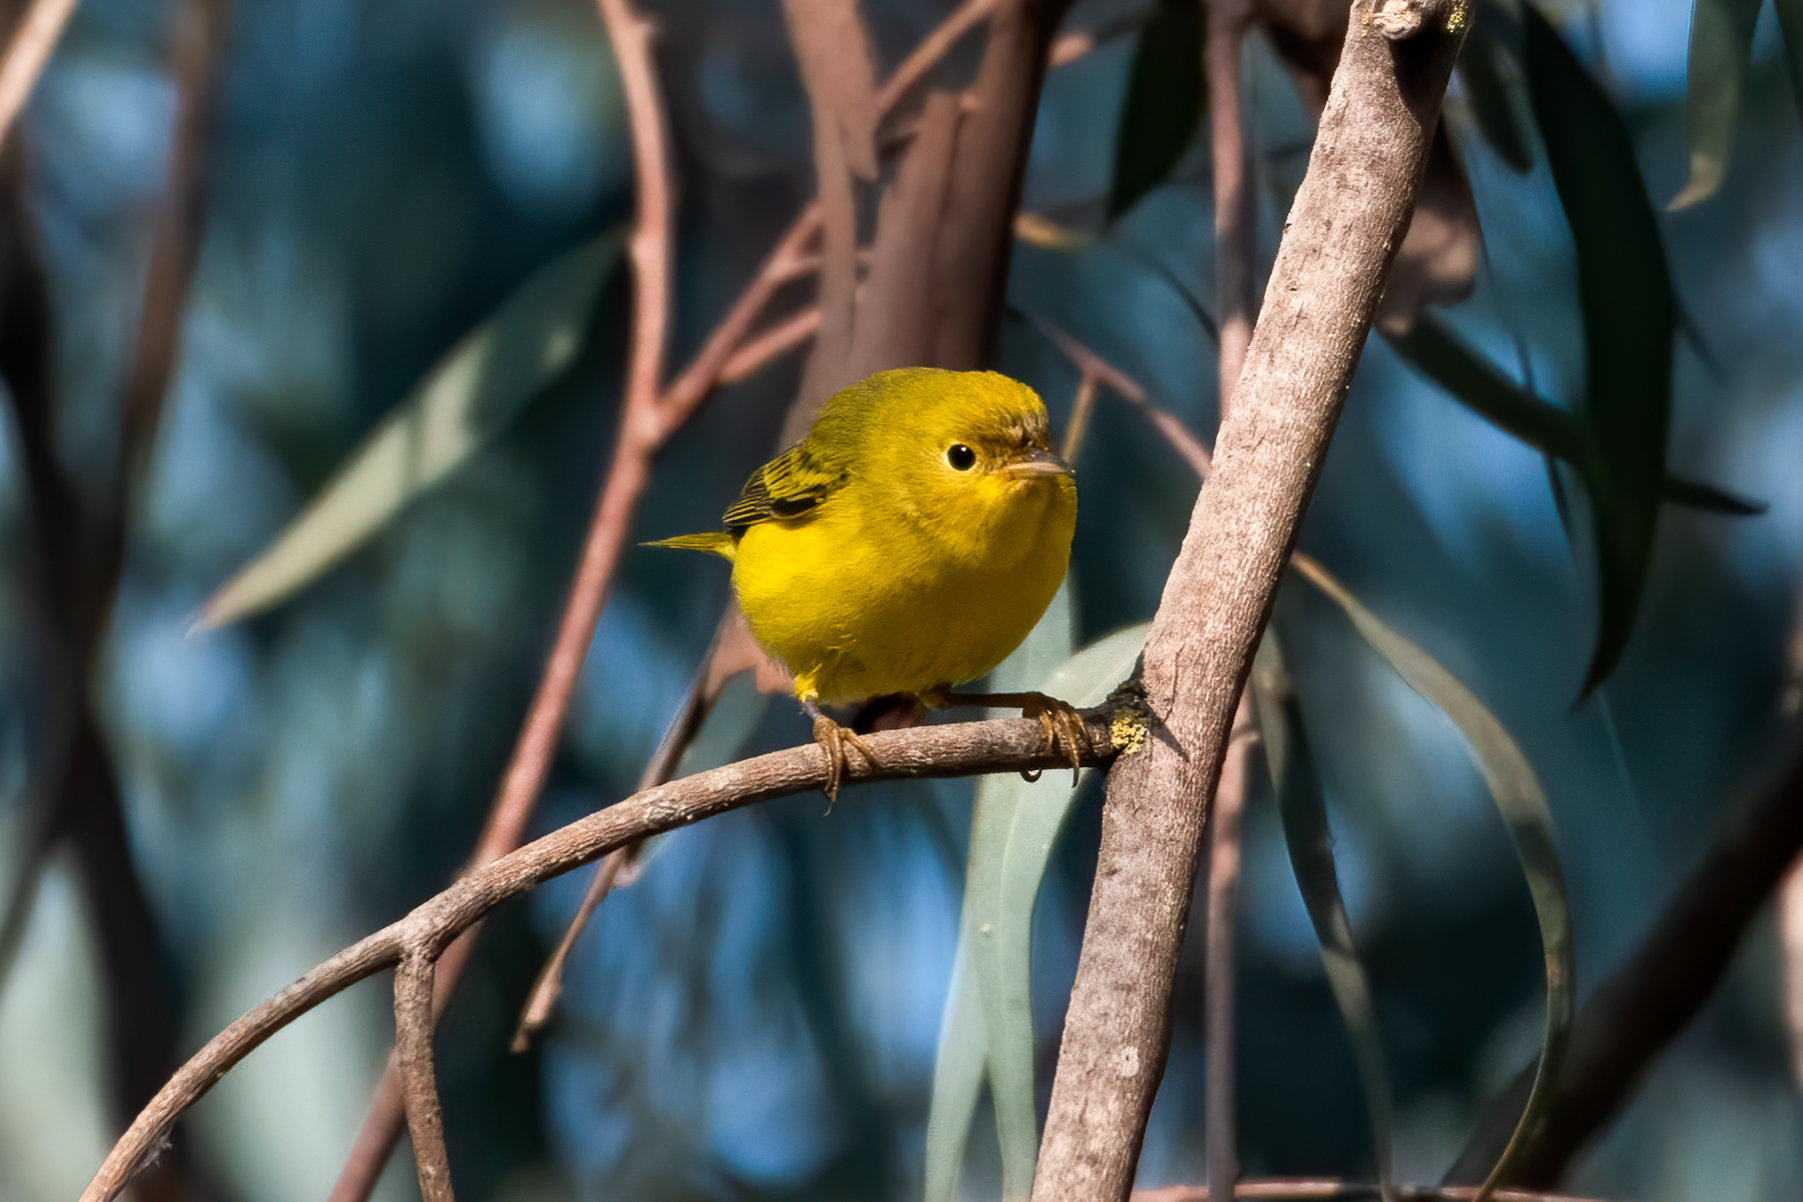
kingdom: Animalia
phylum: Chordata
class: Aves
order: Passeriformes
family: Parulidae
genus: Setophaga
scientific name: Setophaga petechia
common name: Yellow warbler
